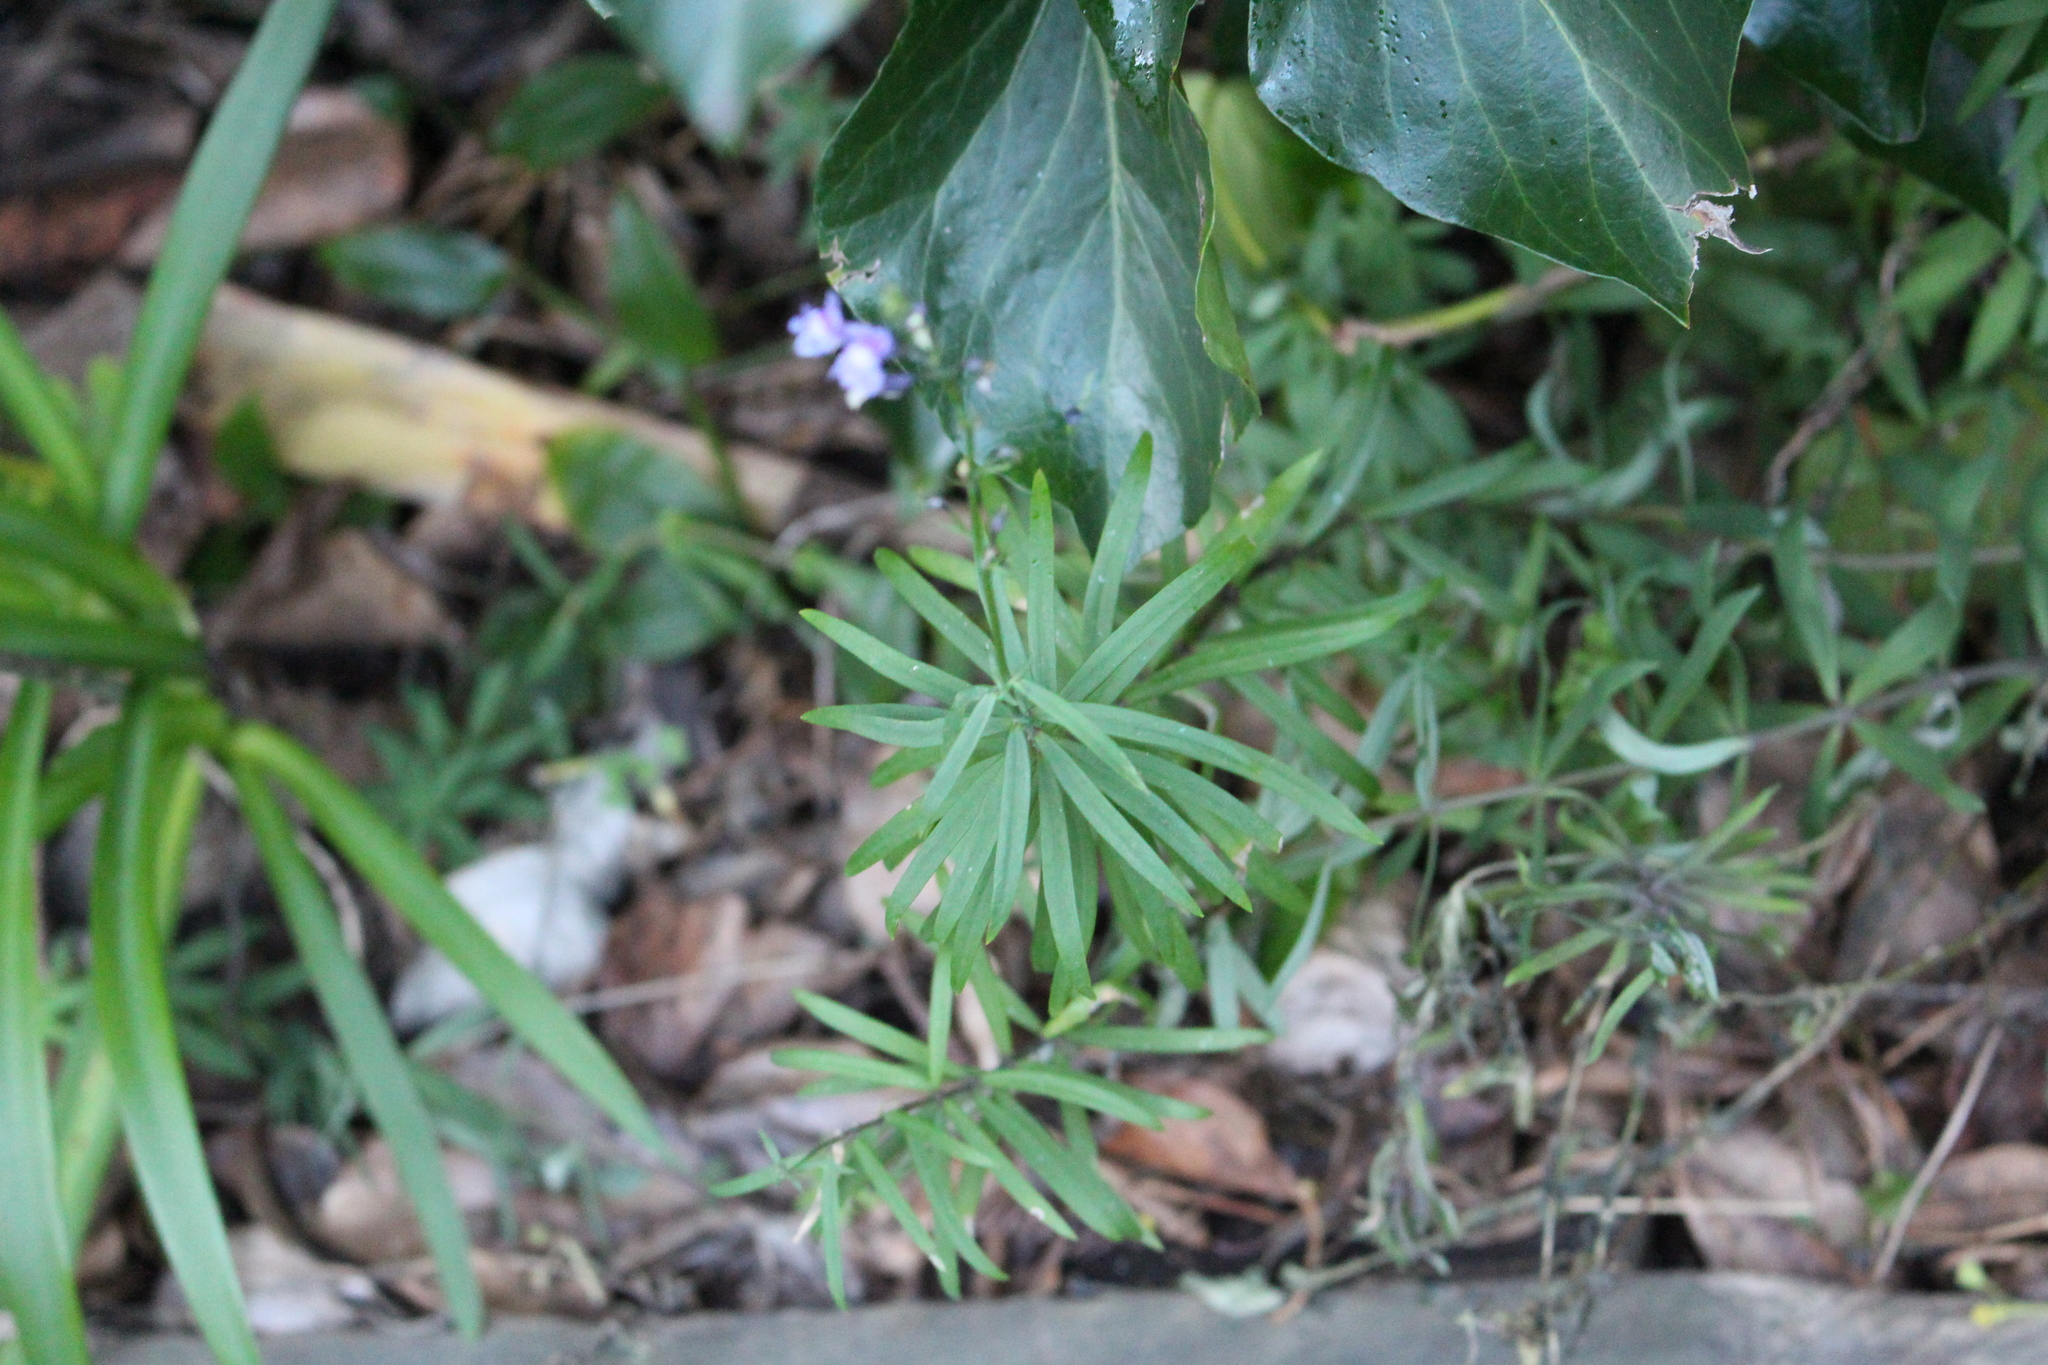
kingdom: Plantae
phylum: Tracheophyta
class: Magnoliopsida
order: Lamiales
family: Plantaginaceae
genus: Linaria
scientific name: Linaria purpurea
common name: Purple toadflax
